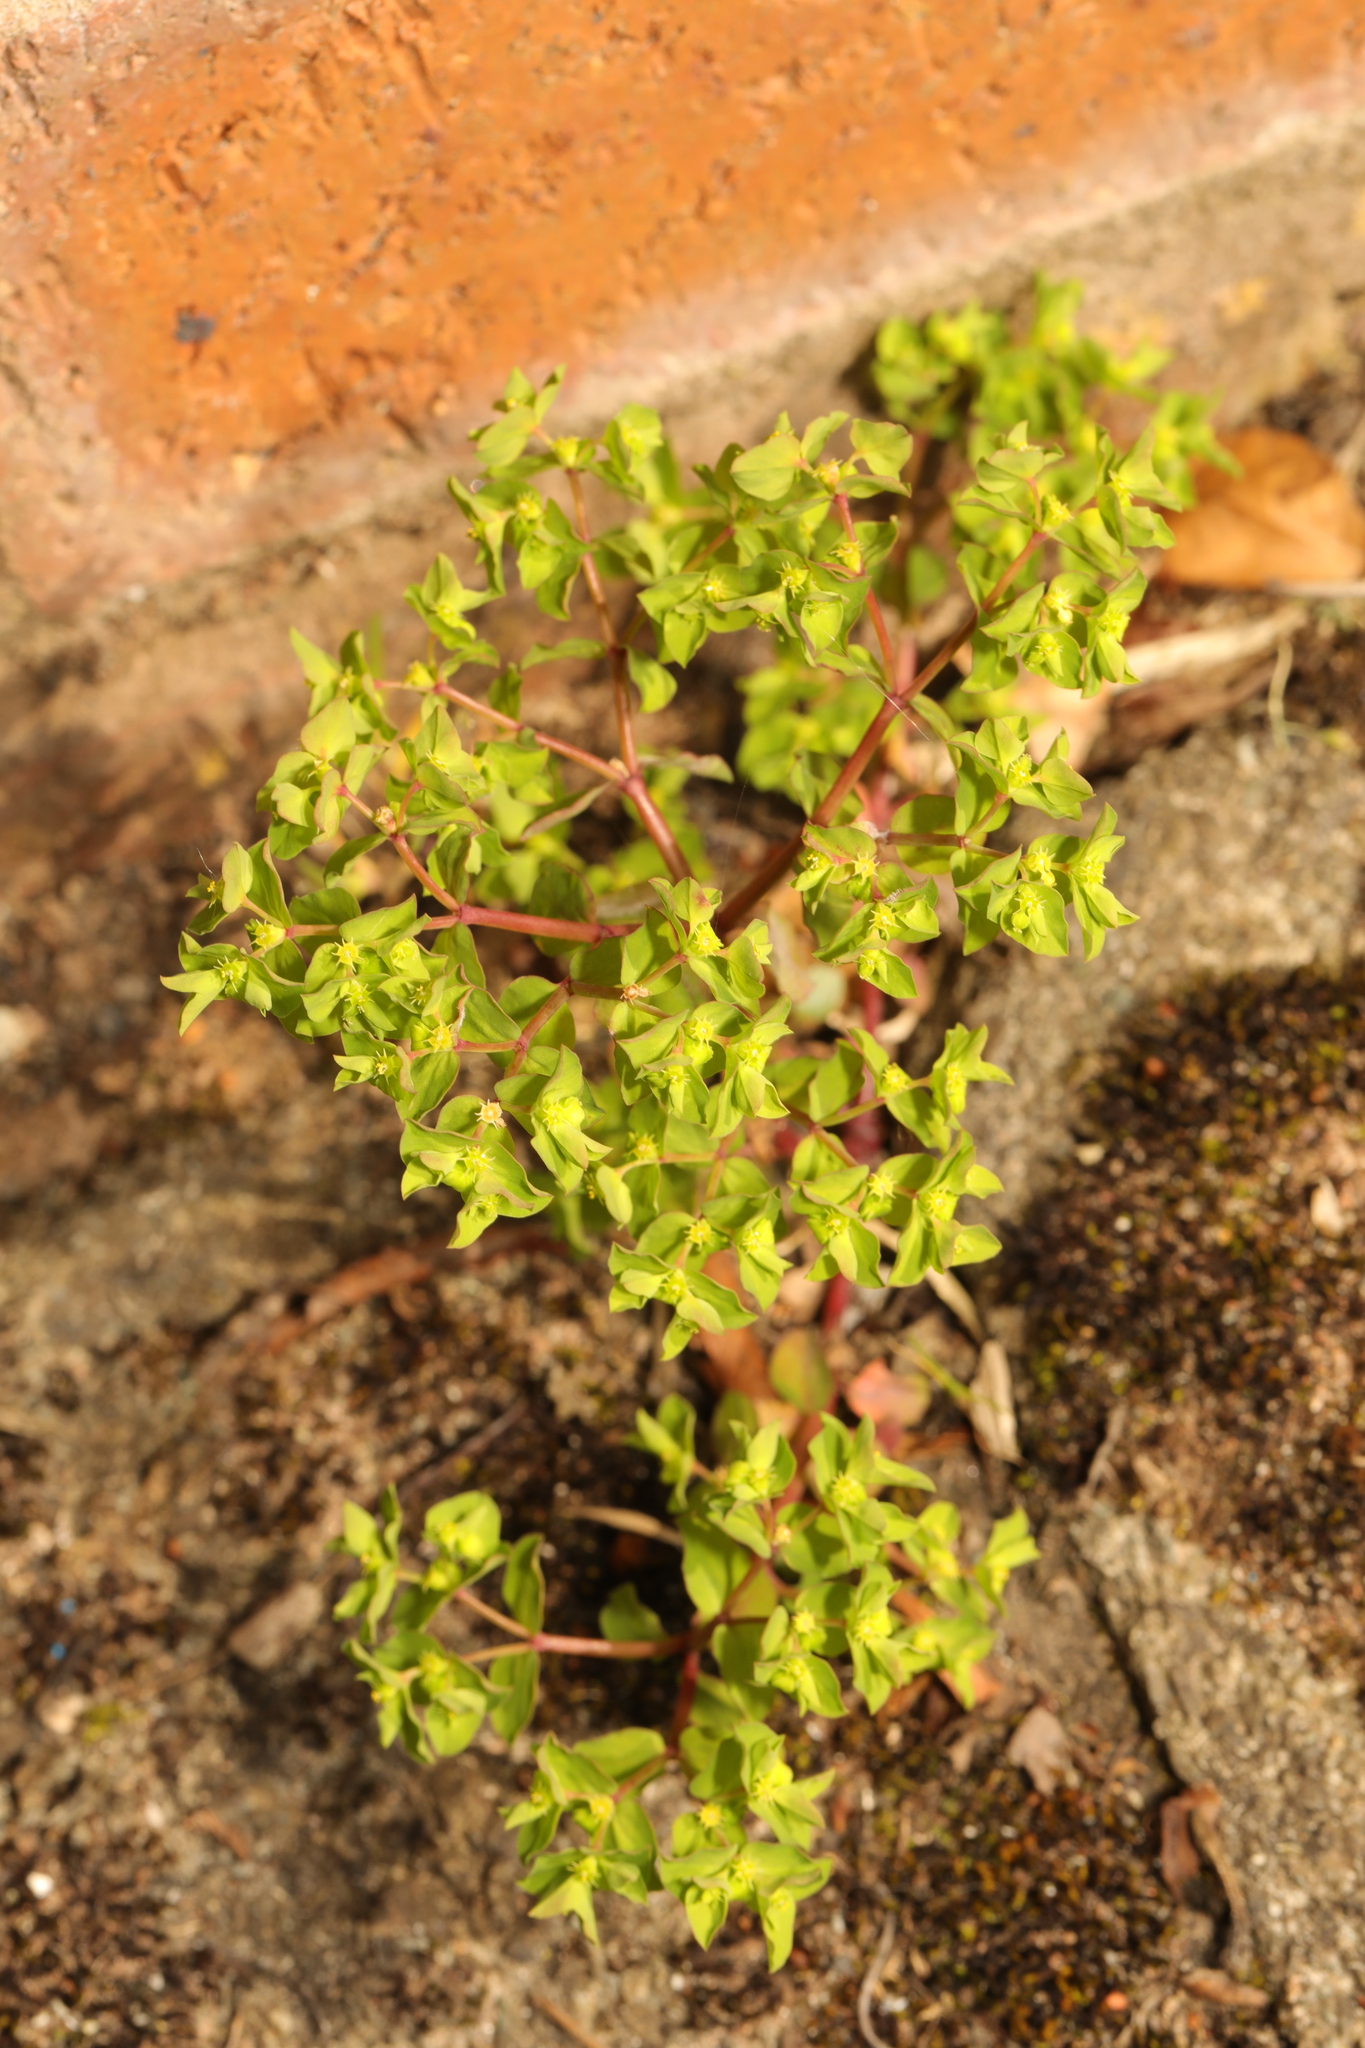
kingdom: Plantae
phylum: Tracheophyta
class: Magnoliopsida
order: Malpighiales
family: Euphorbiaceae
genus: Euphorbia
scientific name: Euphorbia peplus
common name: Petty spurge
